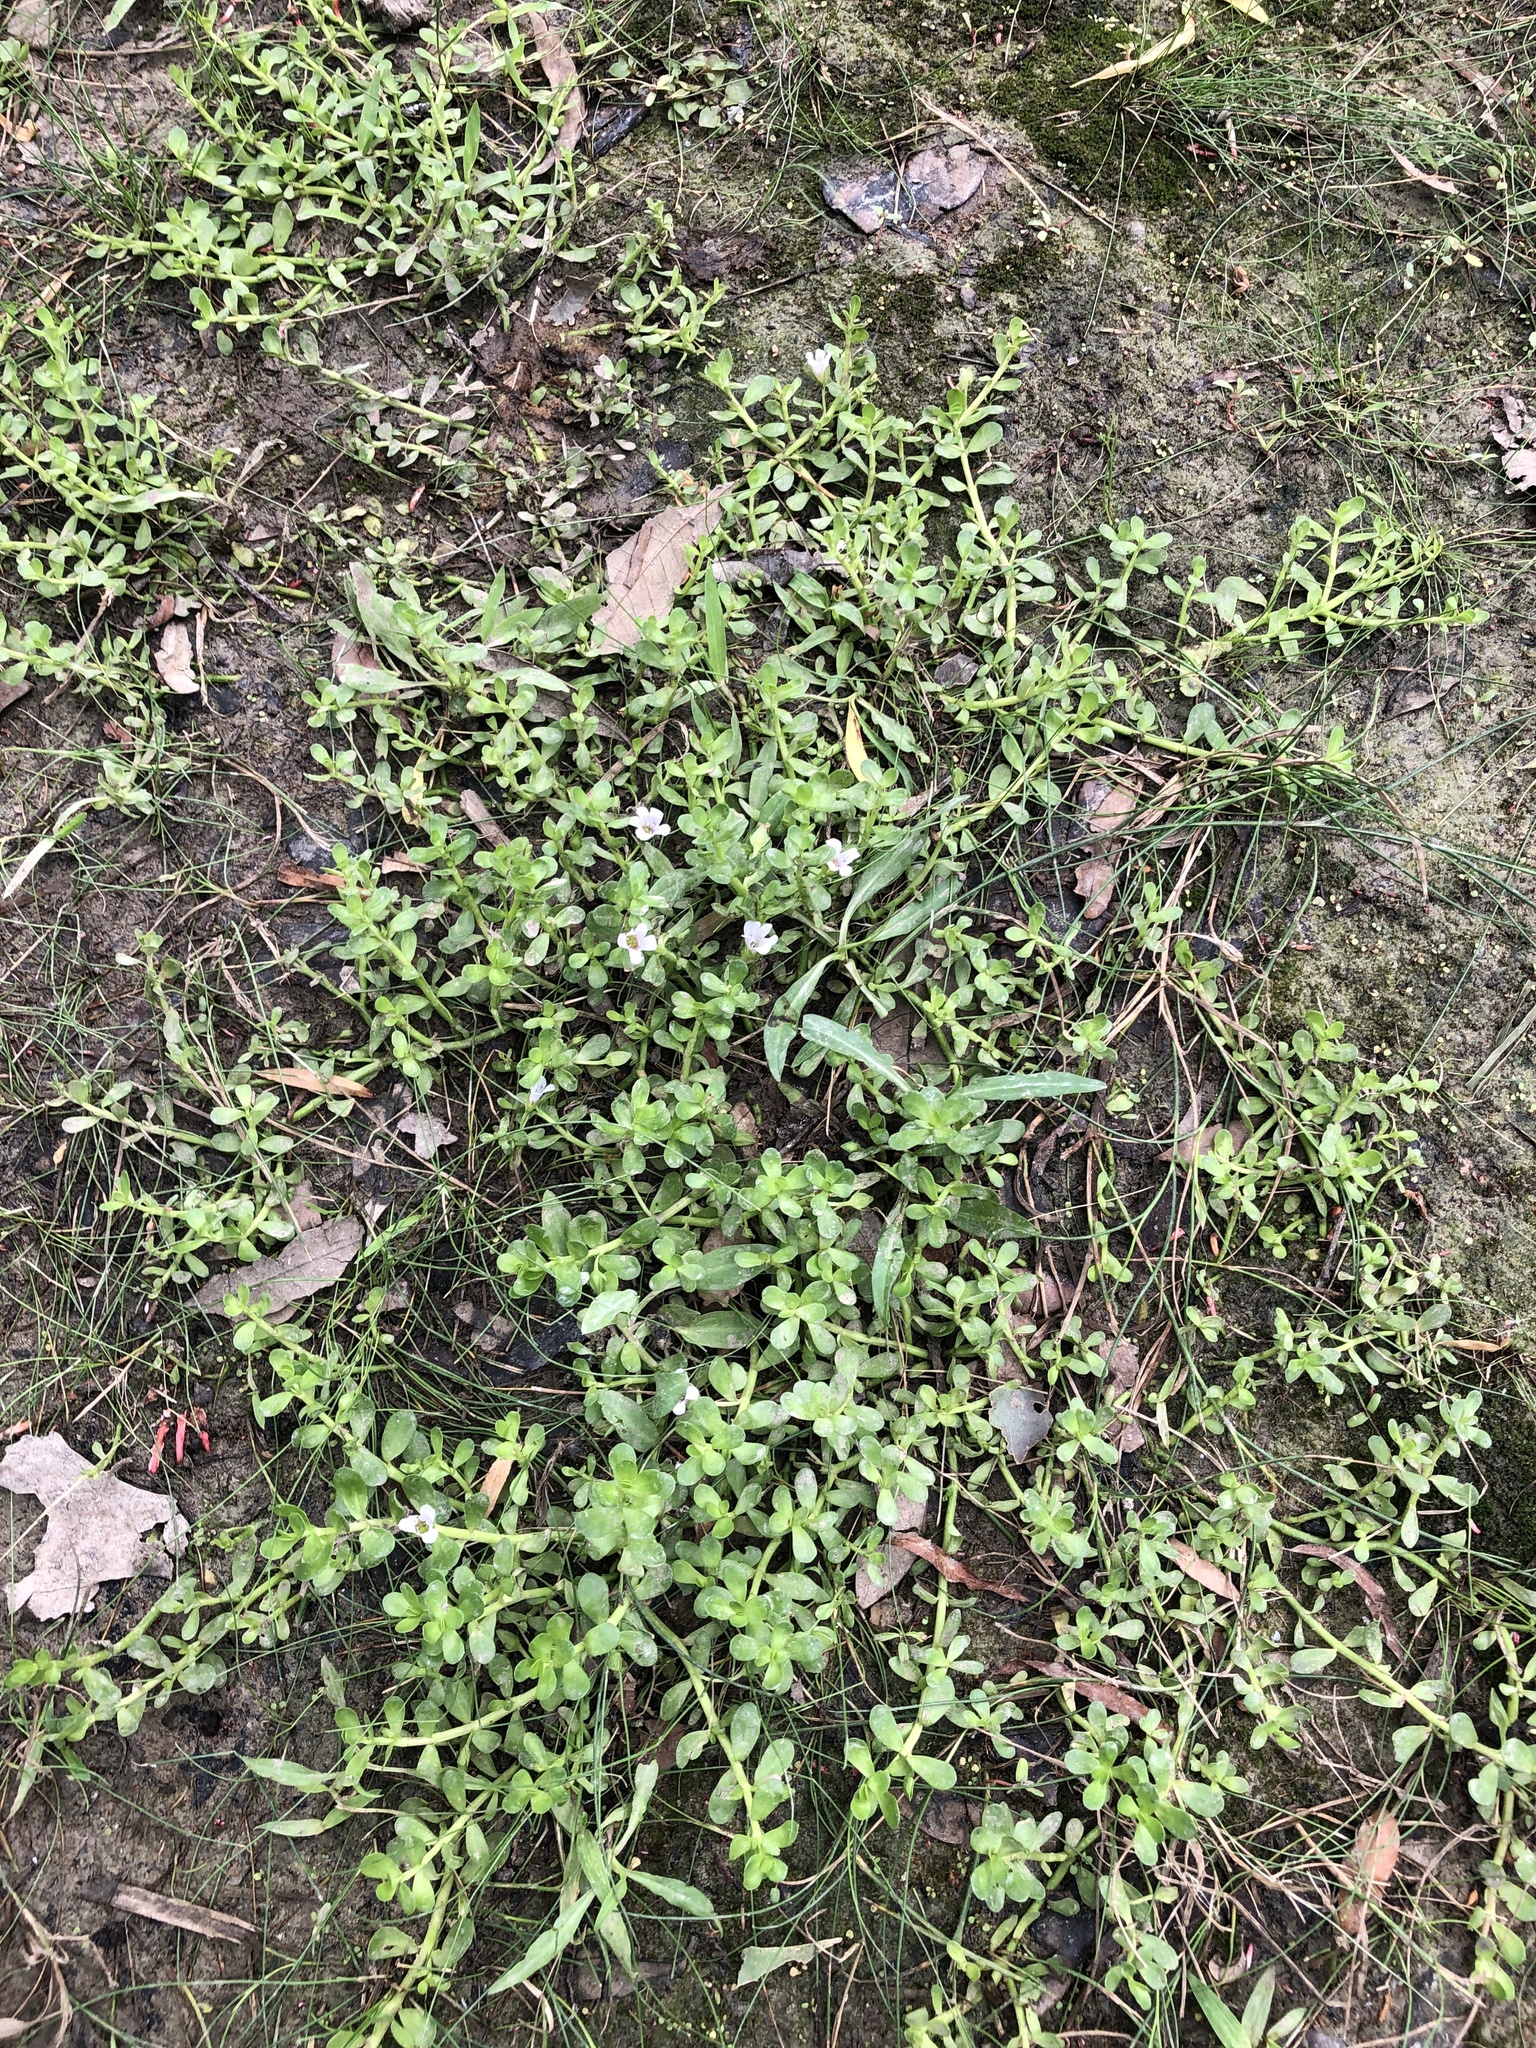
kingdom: Plantae
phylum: Tracheophyta
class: Magnoliopsida
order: Lamiales
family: Plantaginaceae
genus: Bacopa
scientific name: Bacopa monnieri
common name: Indian-pennywort
